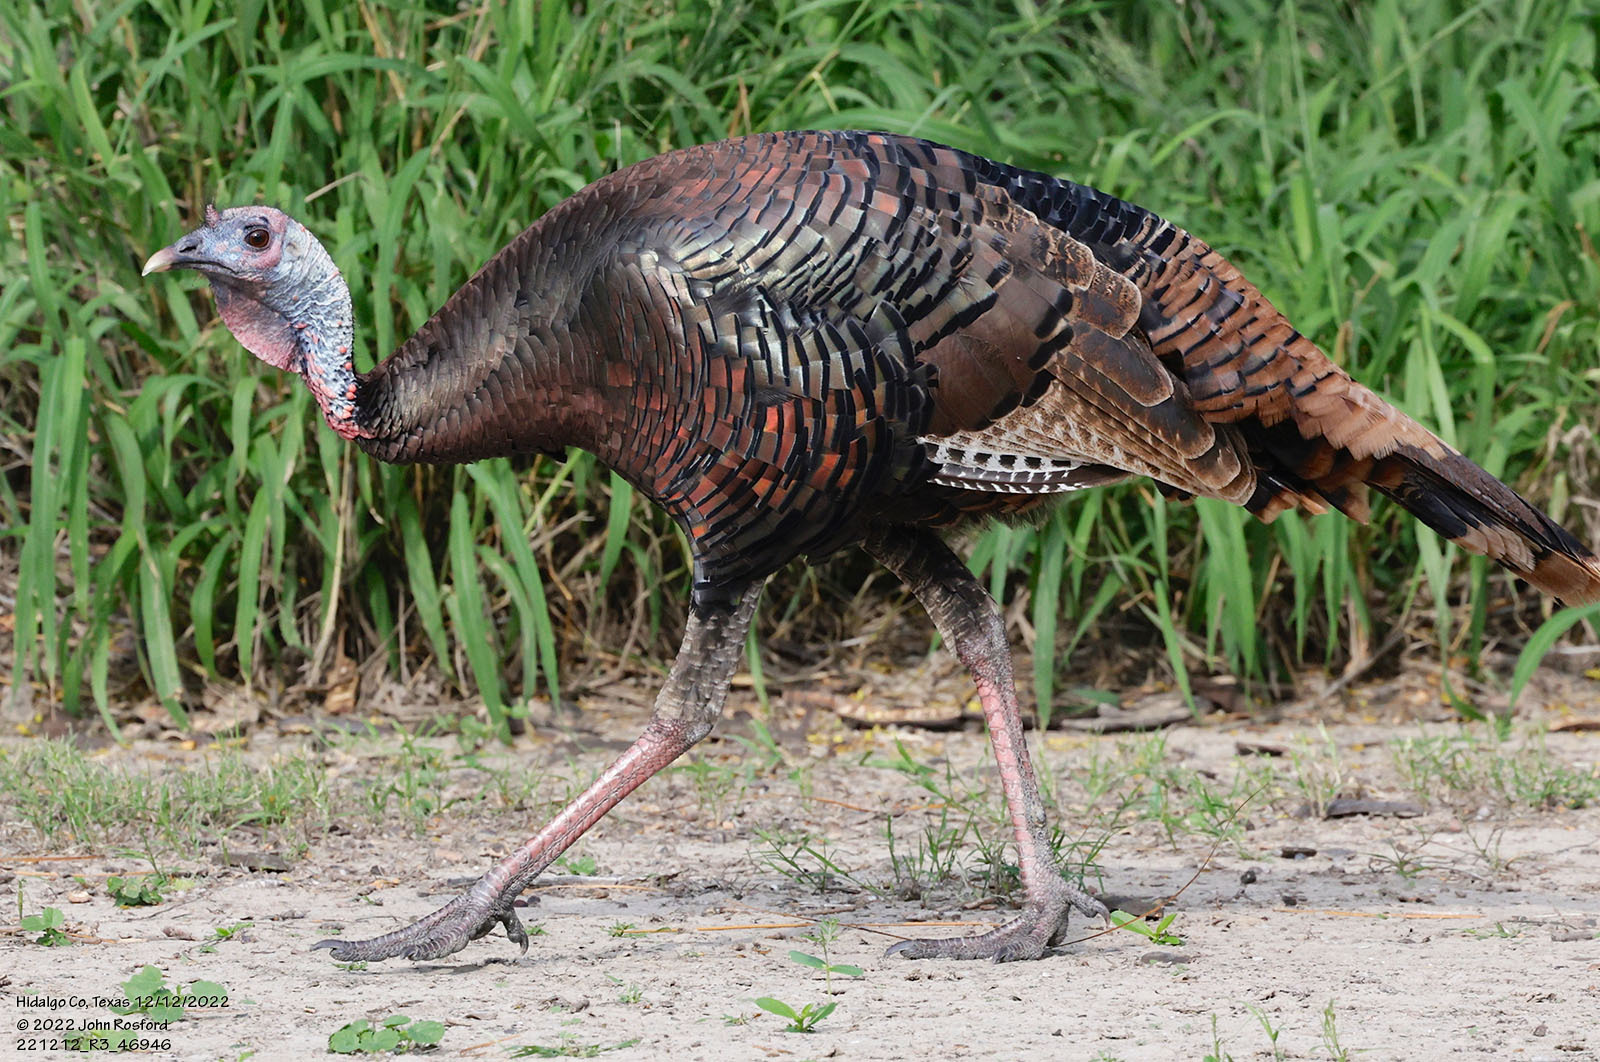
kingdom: Animalia
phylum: Chordata
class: Aves
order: Galliformes
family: Phasianidae
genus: Meleagris
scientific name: Meleagris gallopavo
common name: Wild turkey
